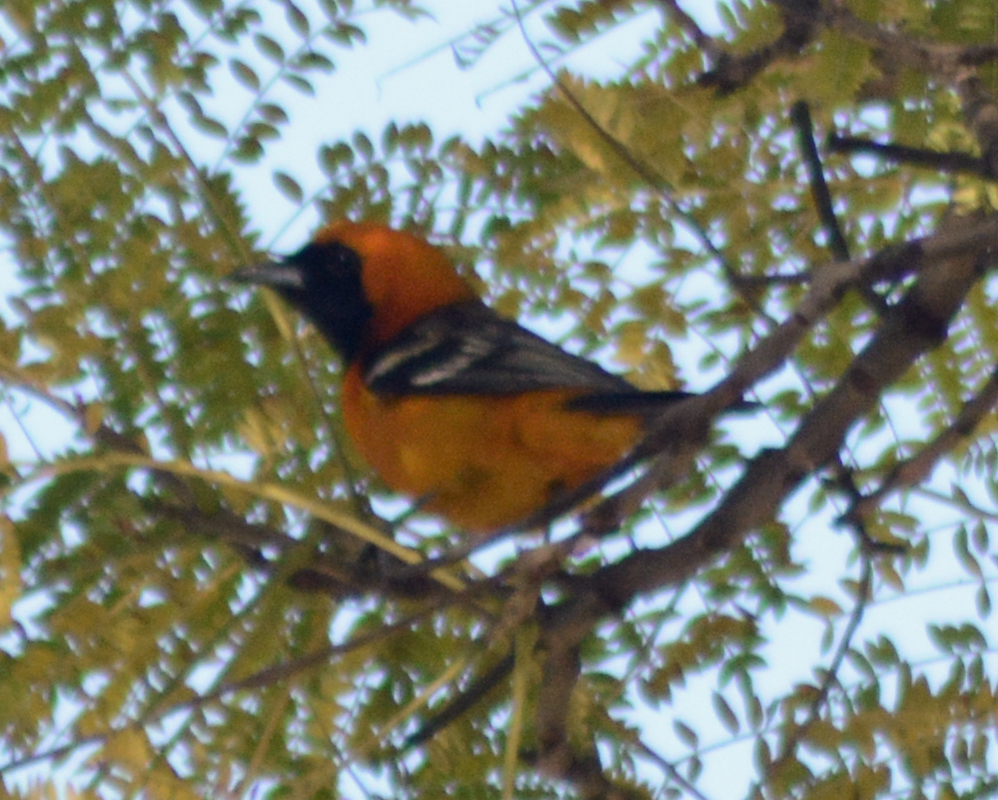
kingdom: Animalia
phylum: Chordata
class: Aves
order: Passeriformes
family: Icteridae
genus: Icterus
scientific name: Icterus cucullatus
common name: Hooded oriole
